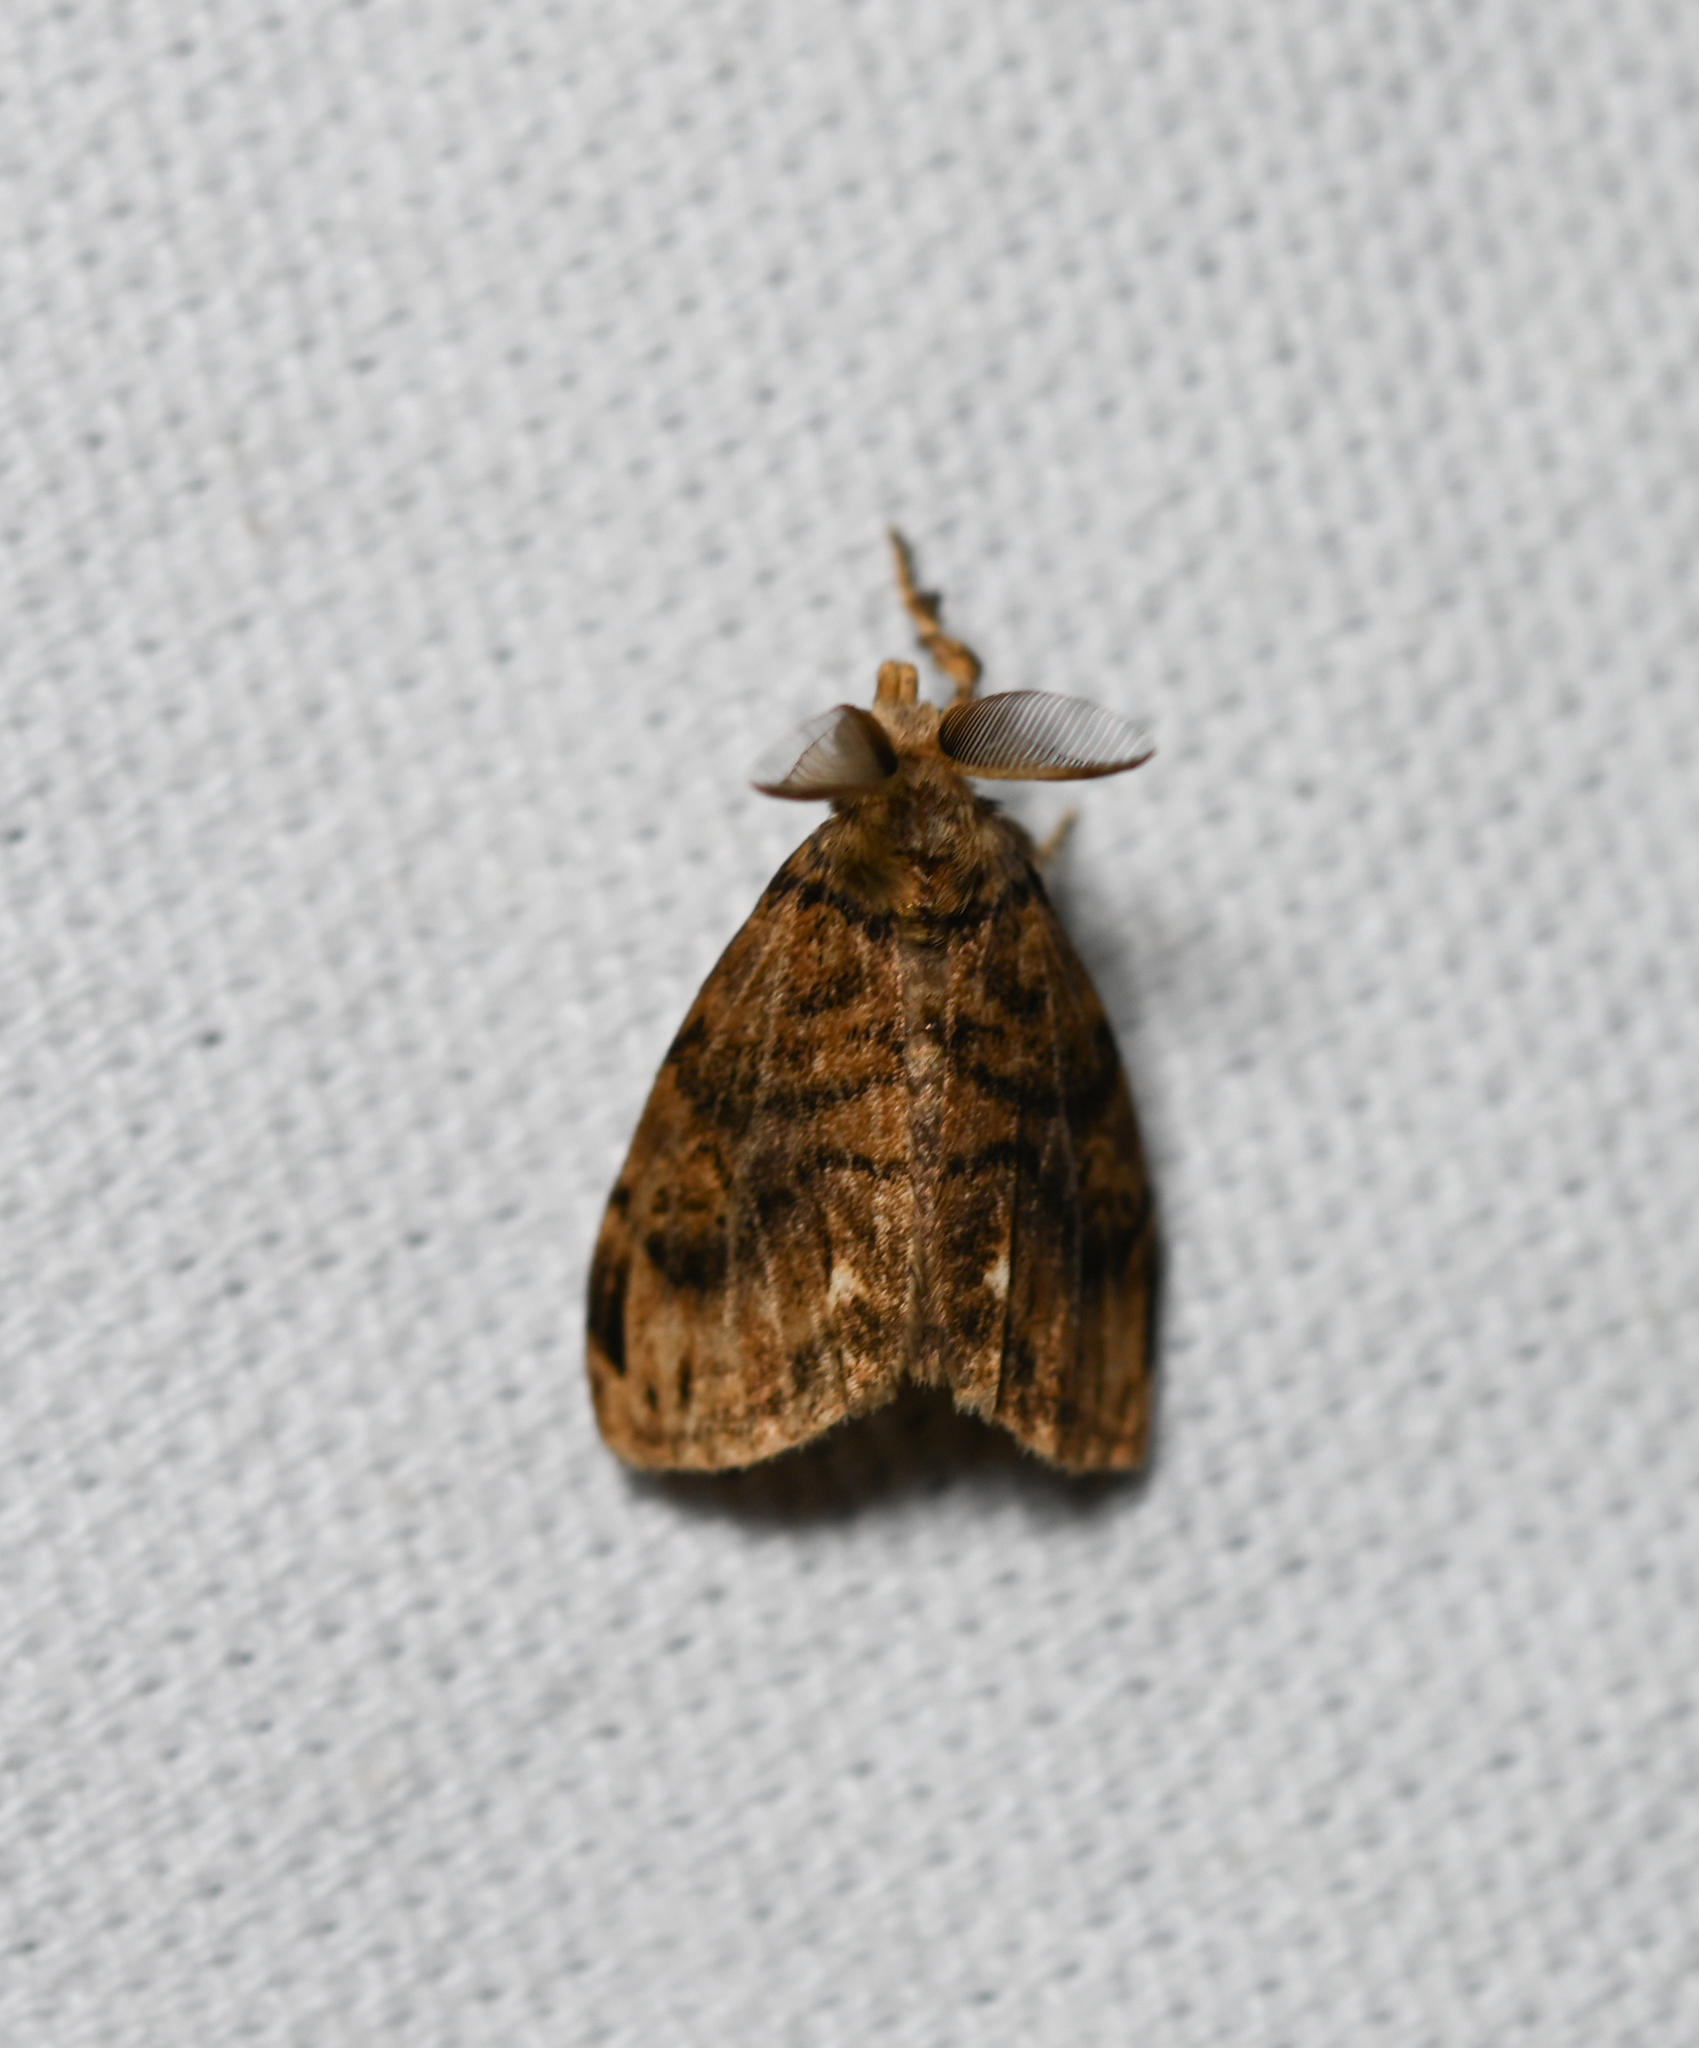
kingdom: Animalia
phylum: Arthropoda
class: Insecta
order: Lepidoptera
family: Erebidae
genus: Orgyia
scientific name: Orgyia definita
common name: Definite tussock moth
